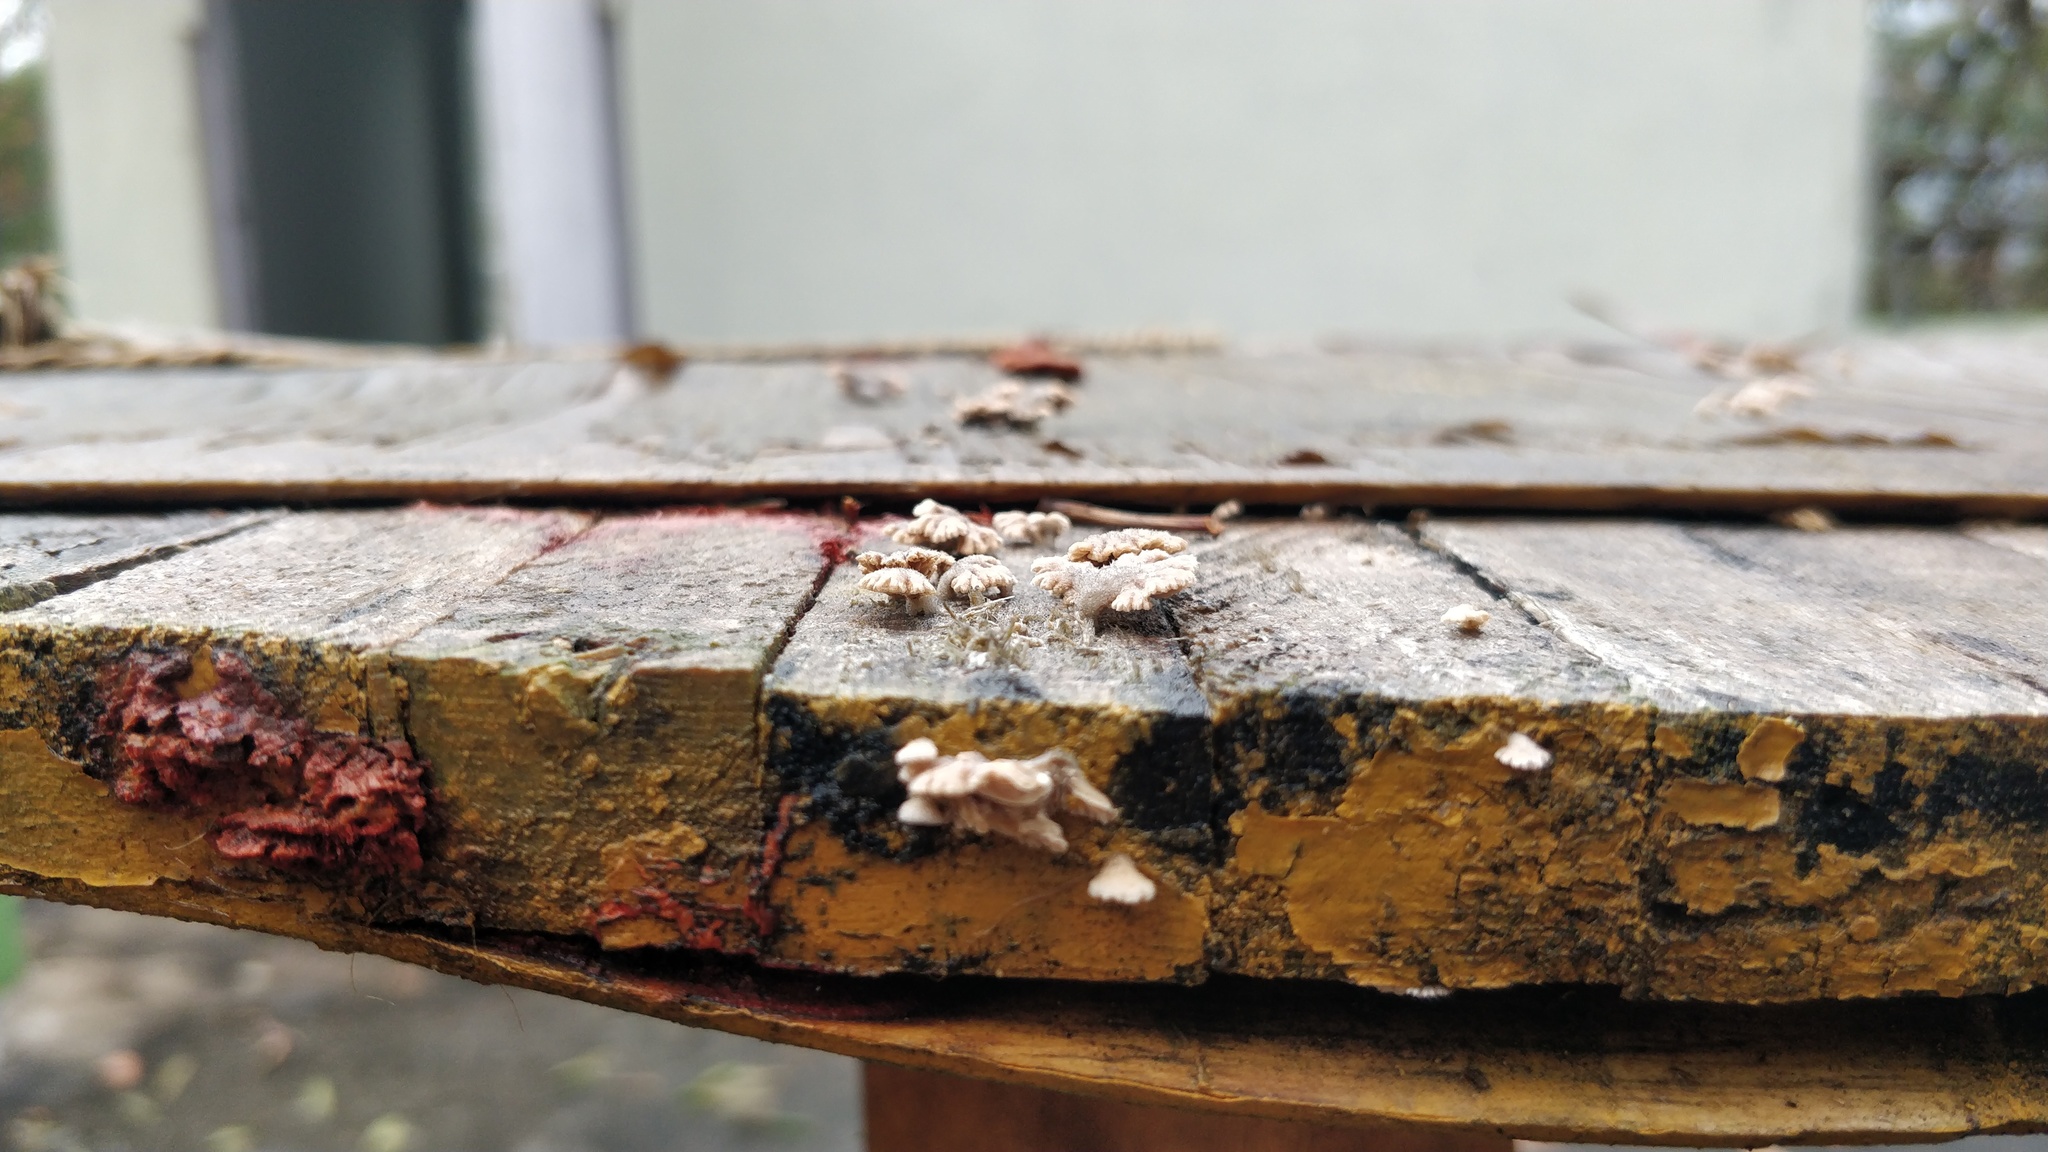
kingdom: Fungi
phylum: Basidiomycota
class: Agaricomycetes
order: Agaricales
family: Schizophyllaceae
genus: Schizophyllum
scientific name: Schizophyllum commune
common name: Common porecrust
